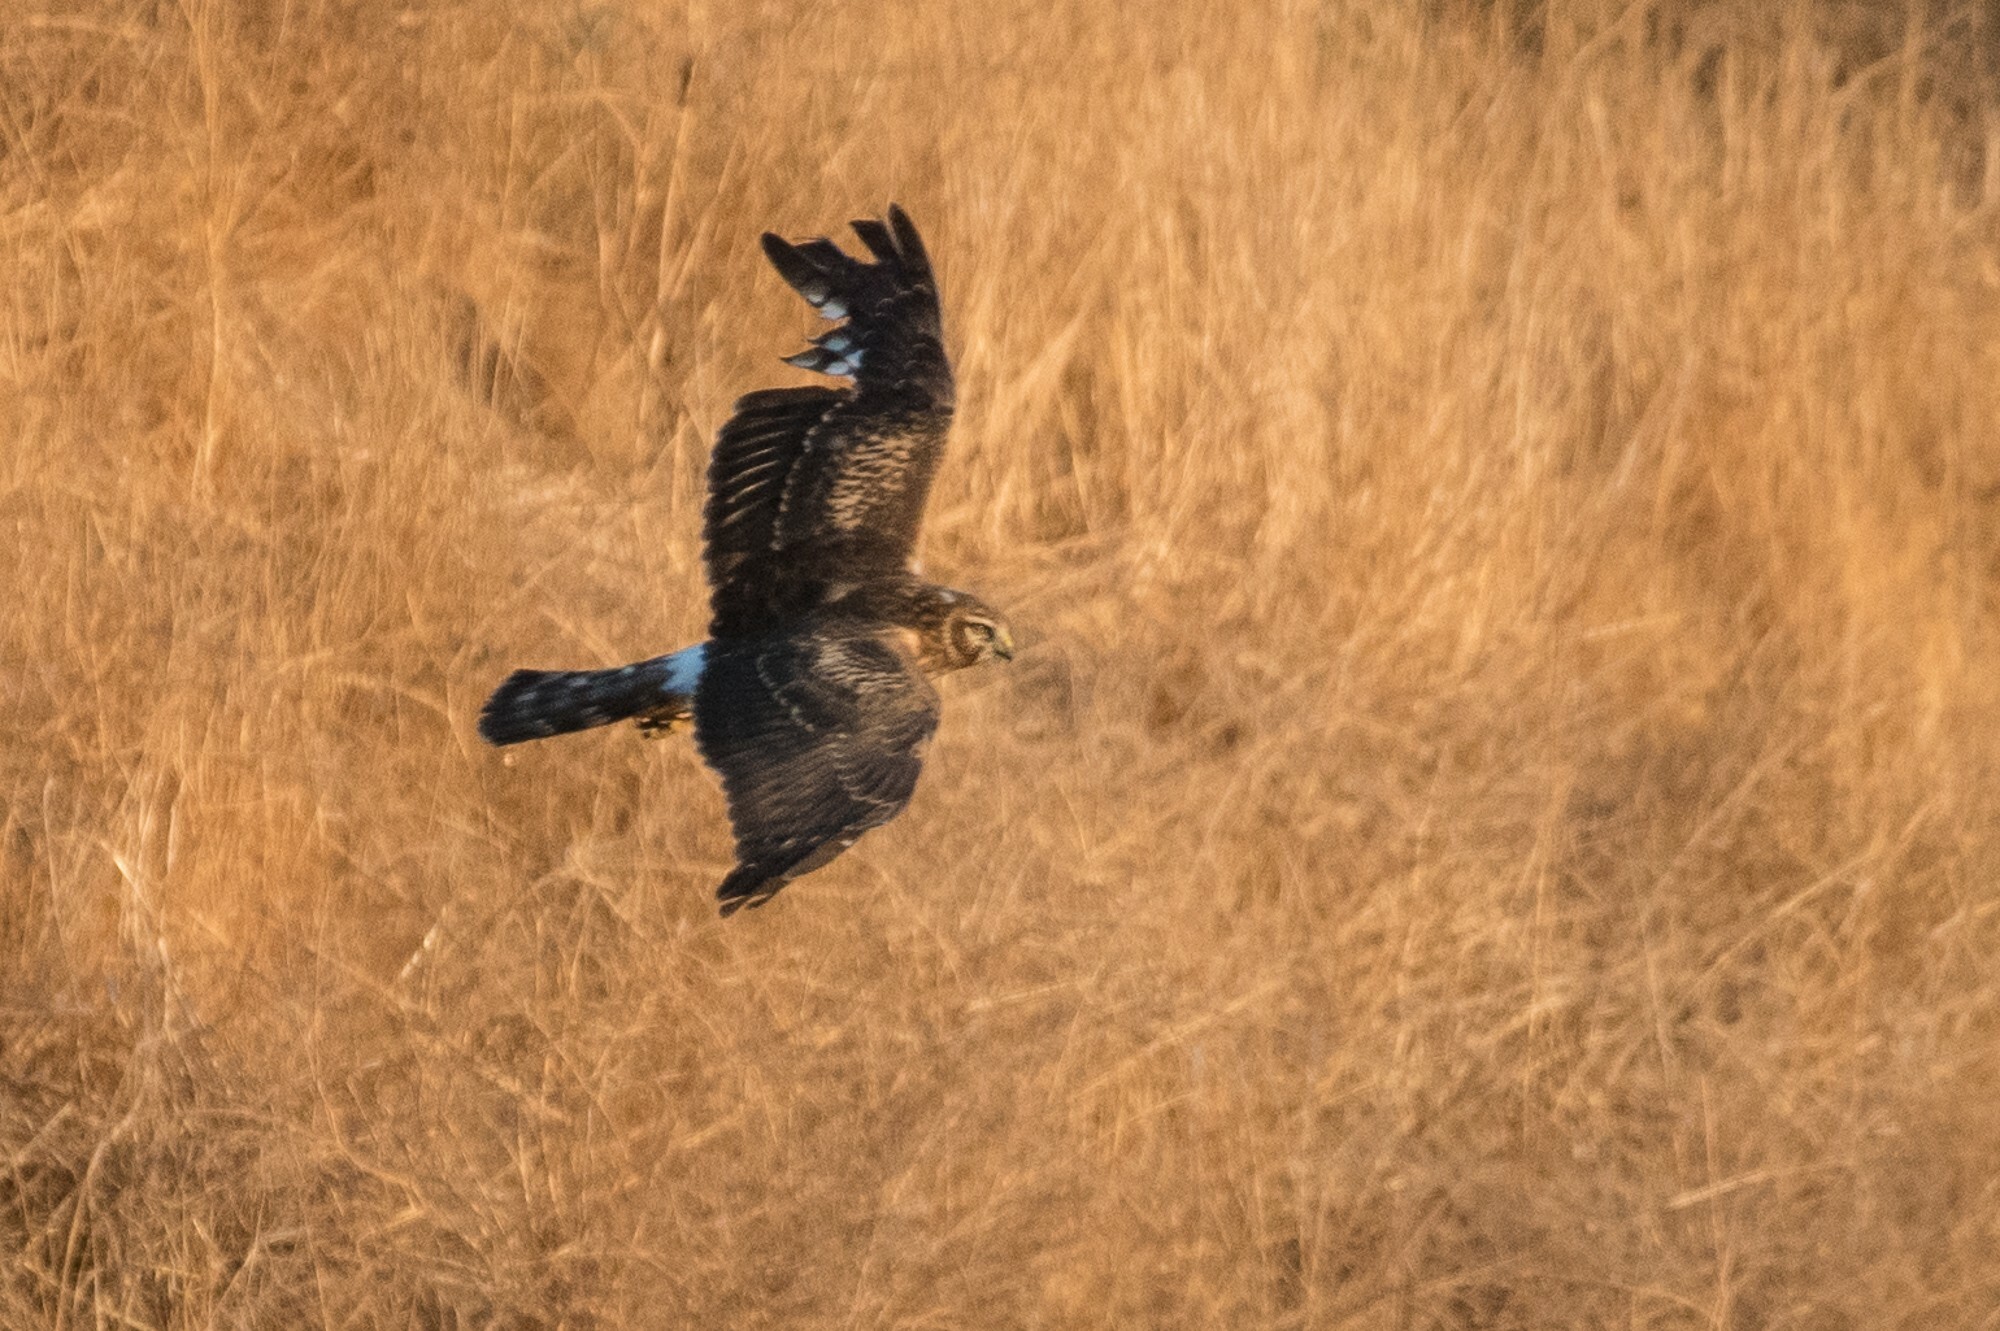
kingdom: Animalia
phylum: Chordata
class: Aves
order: Accipitriformes
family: Accipitridae
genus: Circus
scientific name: Circus cyaneus
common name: Hen harrier
